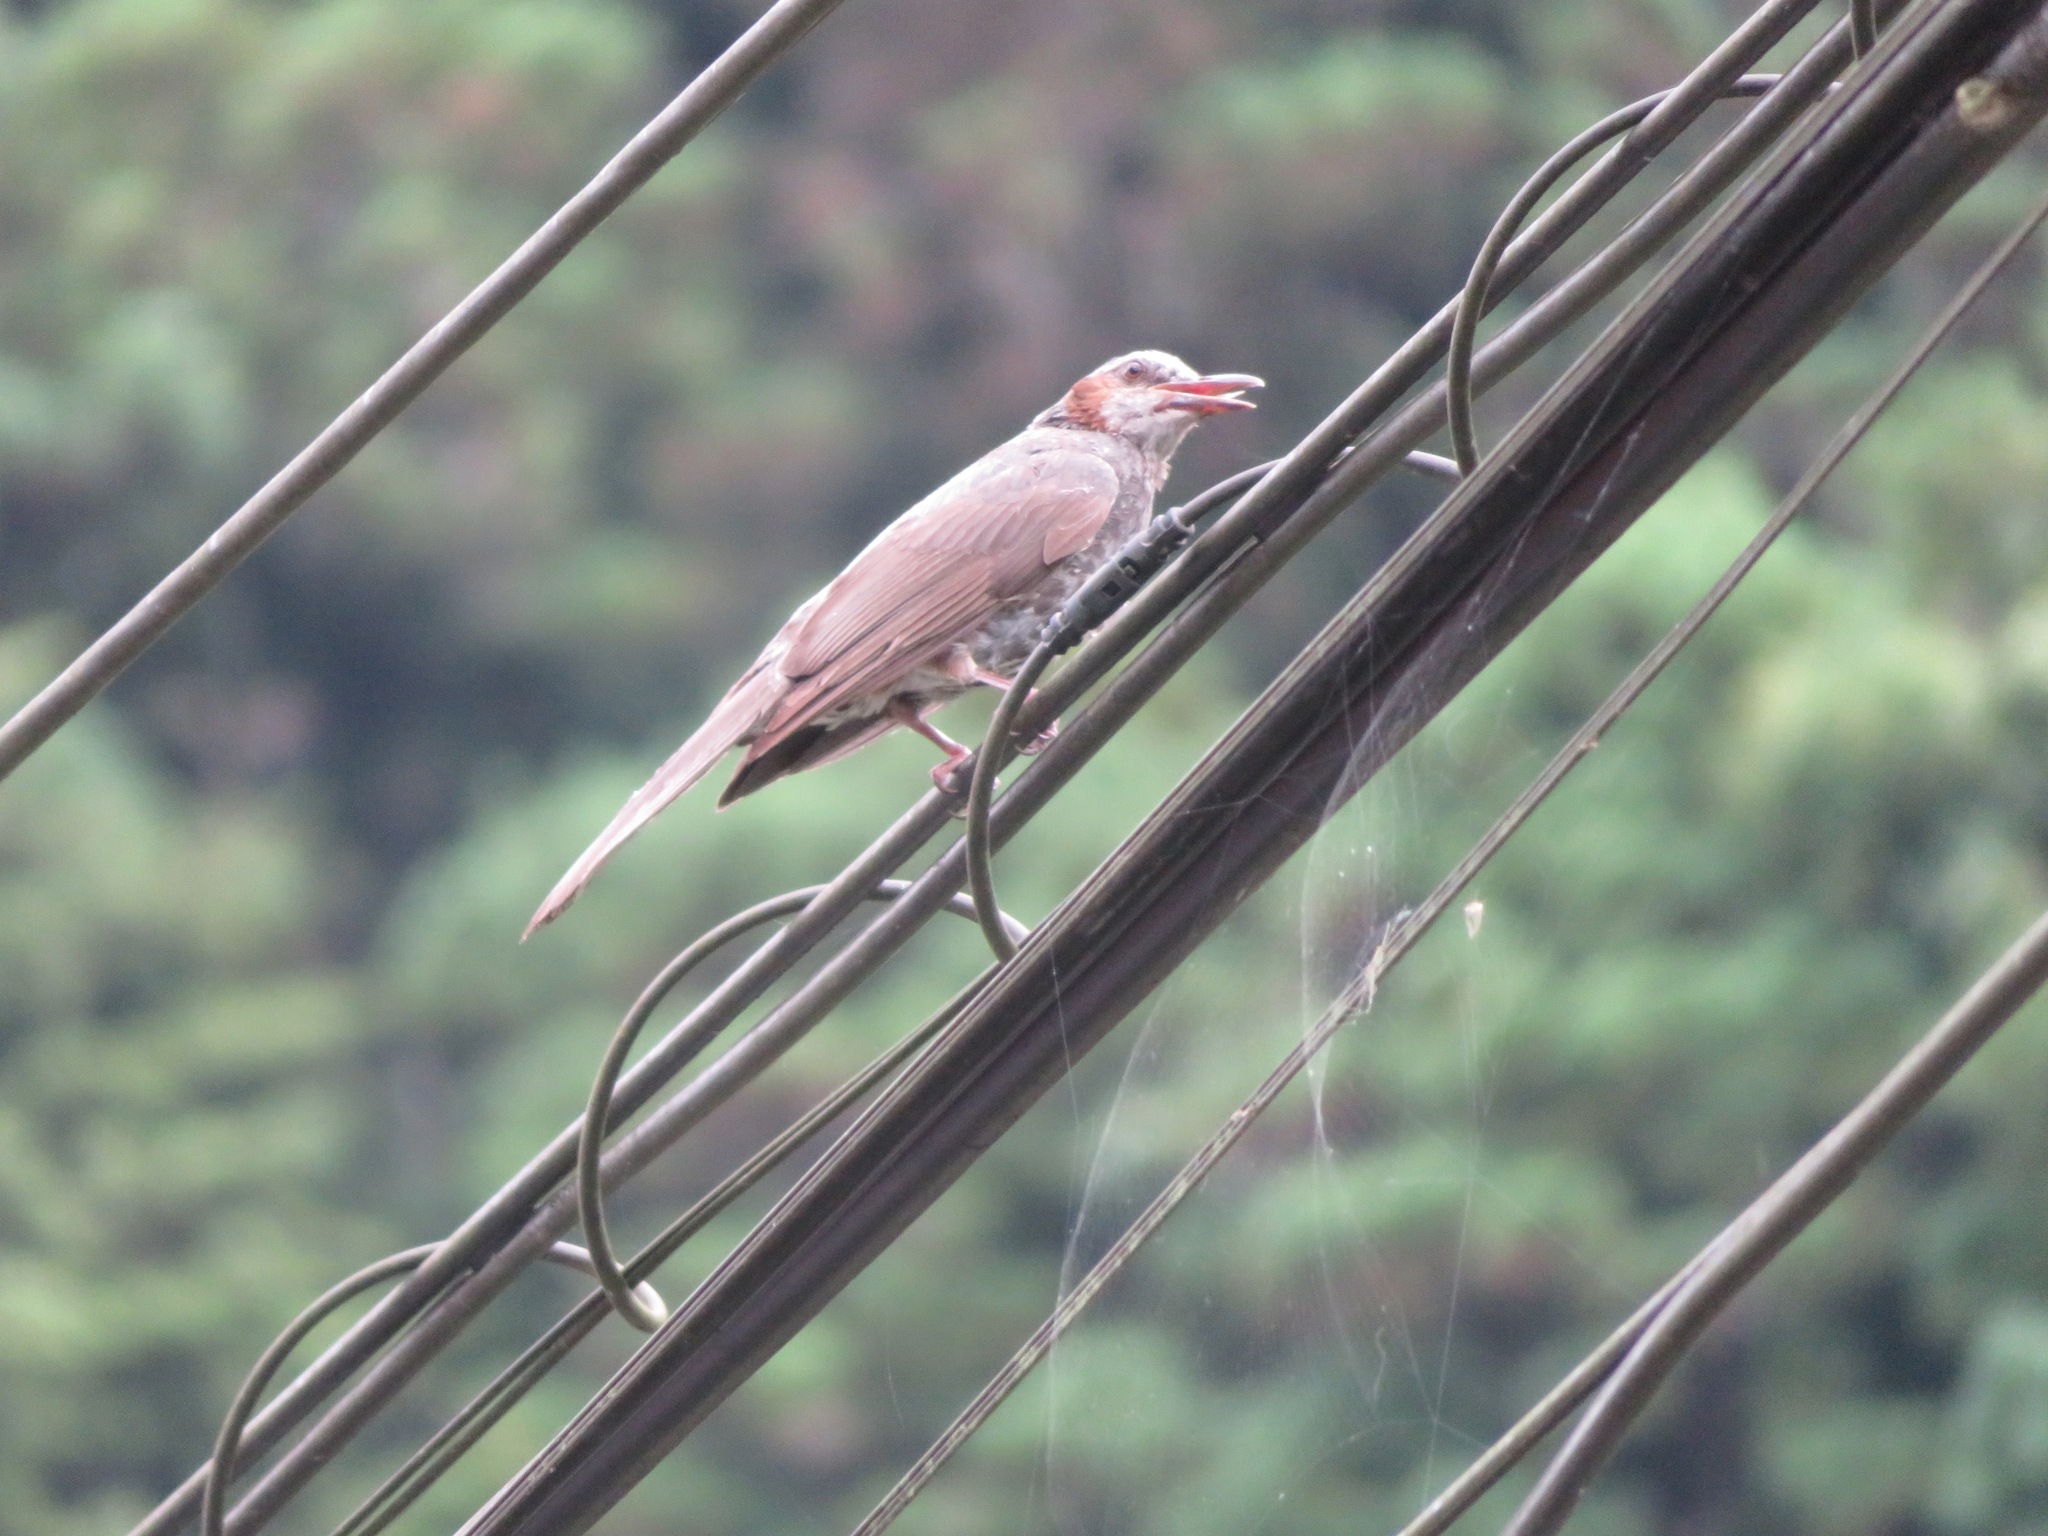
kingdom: Animalia
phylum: Chordata
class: Aves
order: Passeriformes
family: Pycnonotidae
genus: Hypsipetes
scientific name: Hypsipetes amaurotis
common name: Brown-eared bulbul
